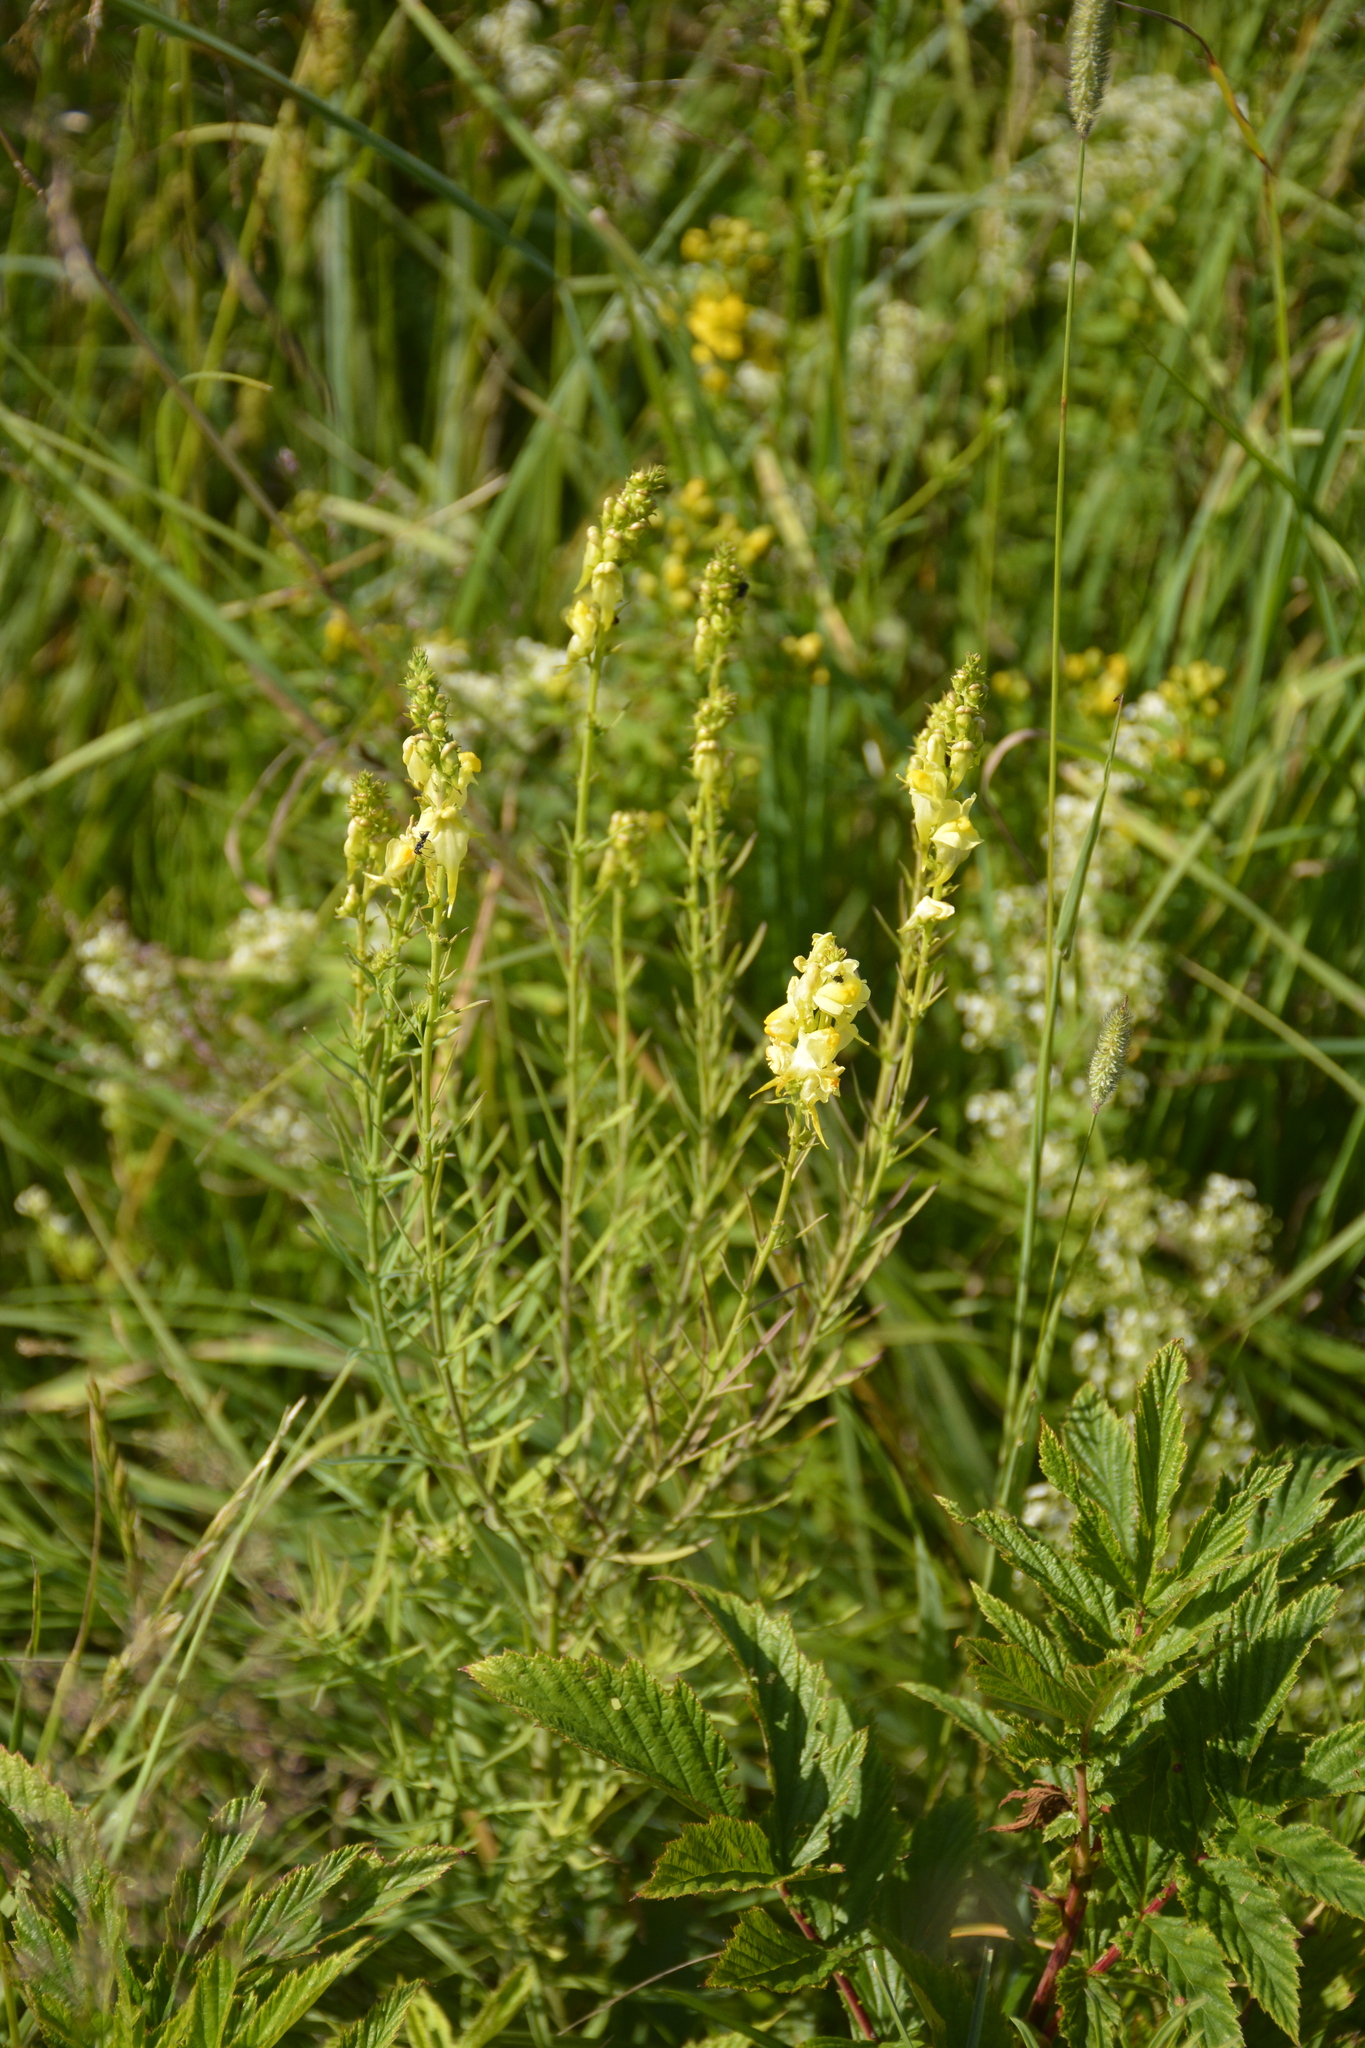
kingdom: Plantae
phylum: Tracheophyta
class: Magnoliopsida
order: Lamiales
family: Plantaginaceae
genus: Linaria
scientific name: Linaria vulgaris
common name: Butter and eggs
